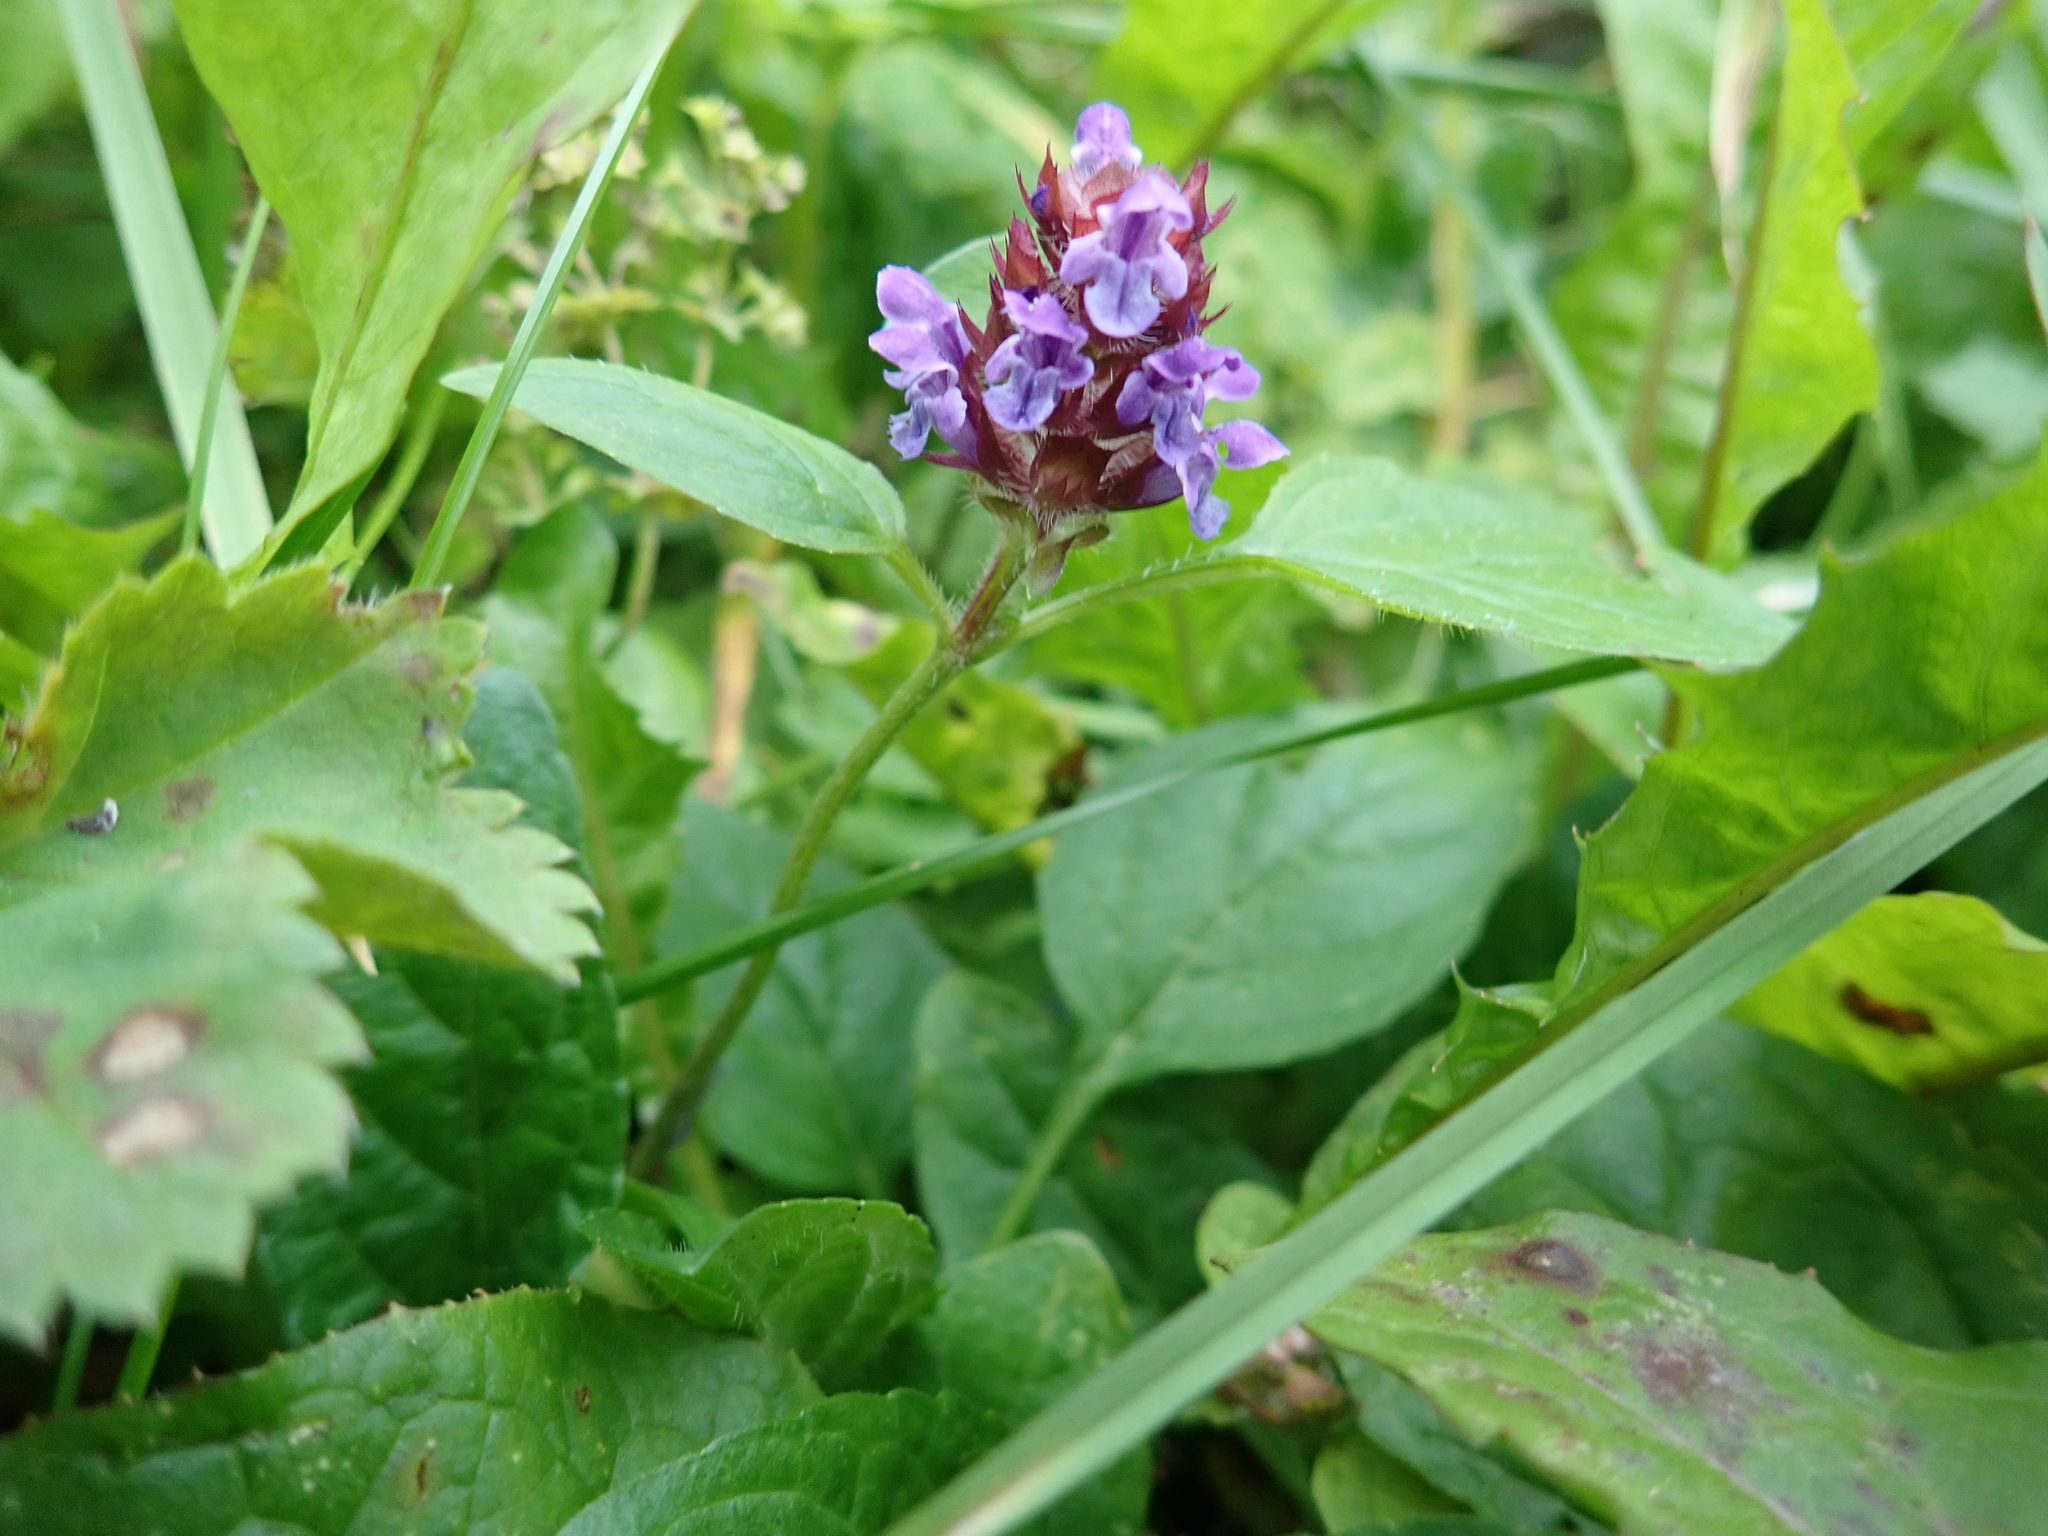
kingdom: Plantae
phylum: Tracheophyta
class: Magnoliopsida
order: Lamiales
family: Lamiaceae
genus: Prunella
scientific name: Prunella vulgaris
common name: Heal-all
